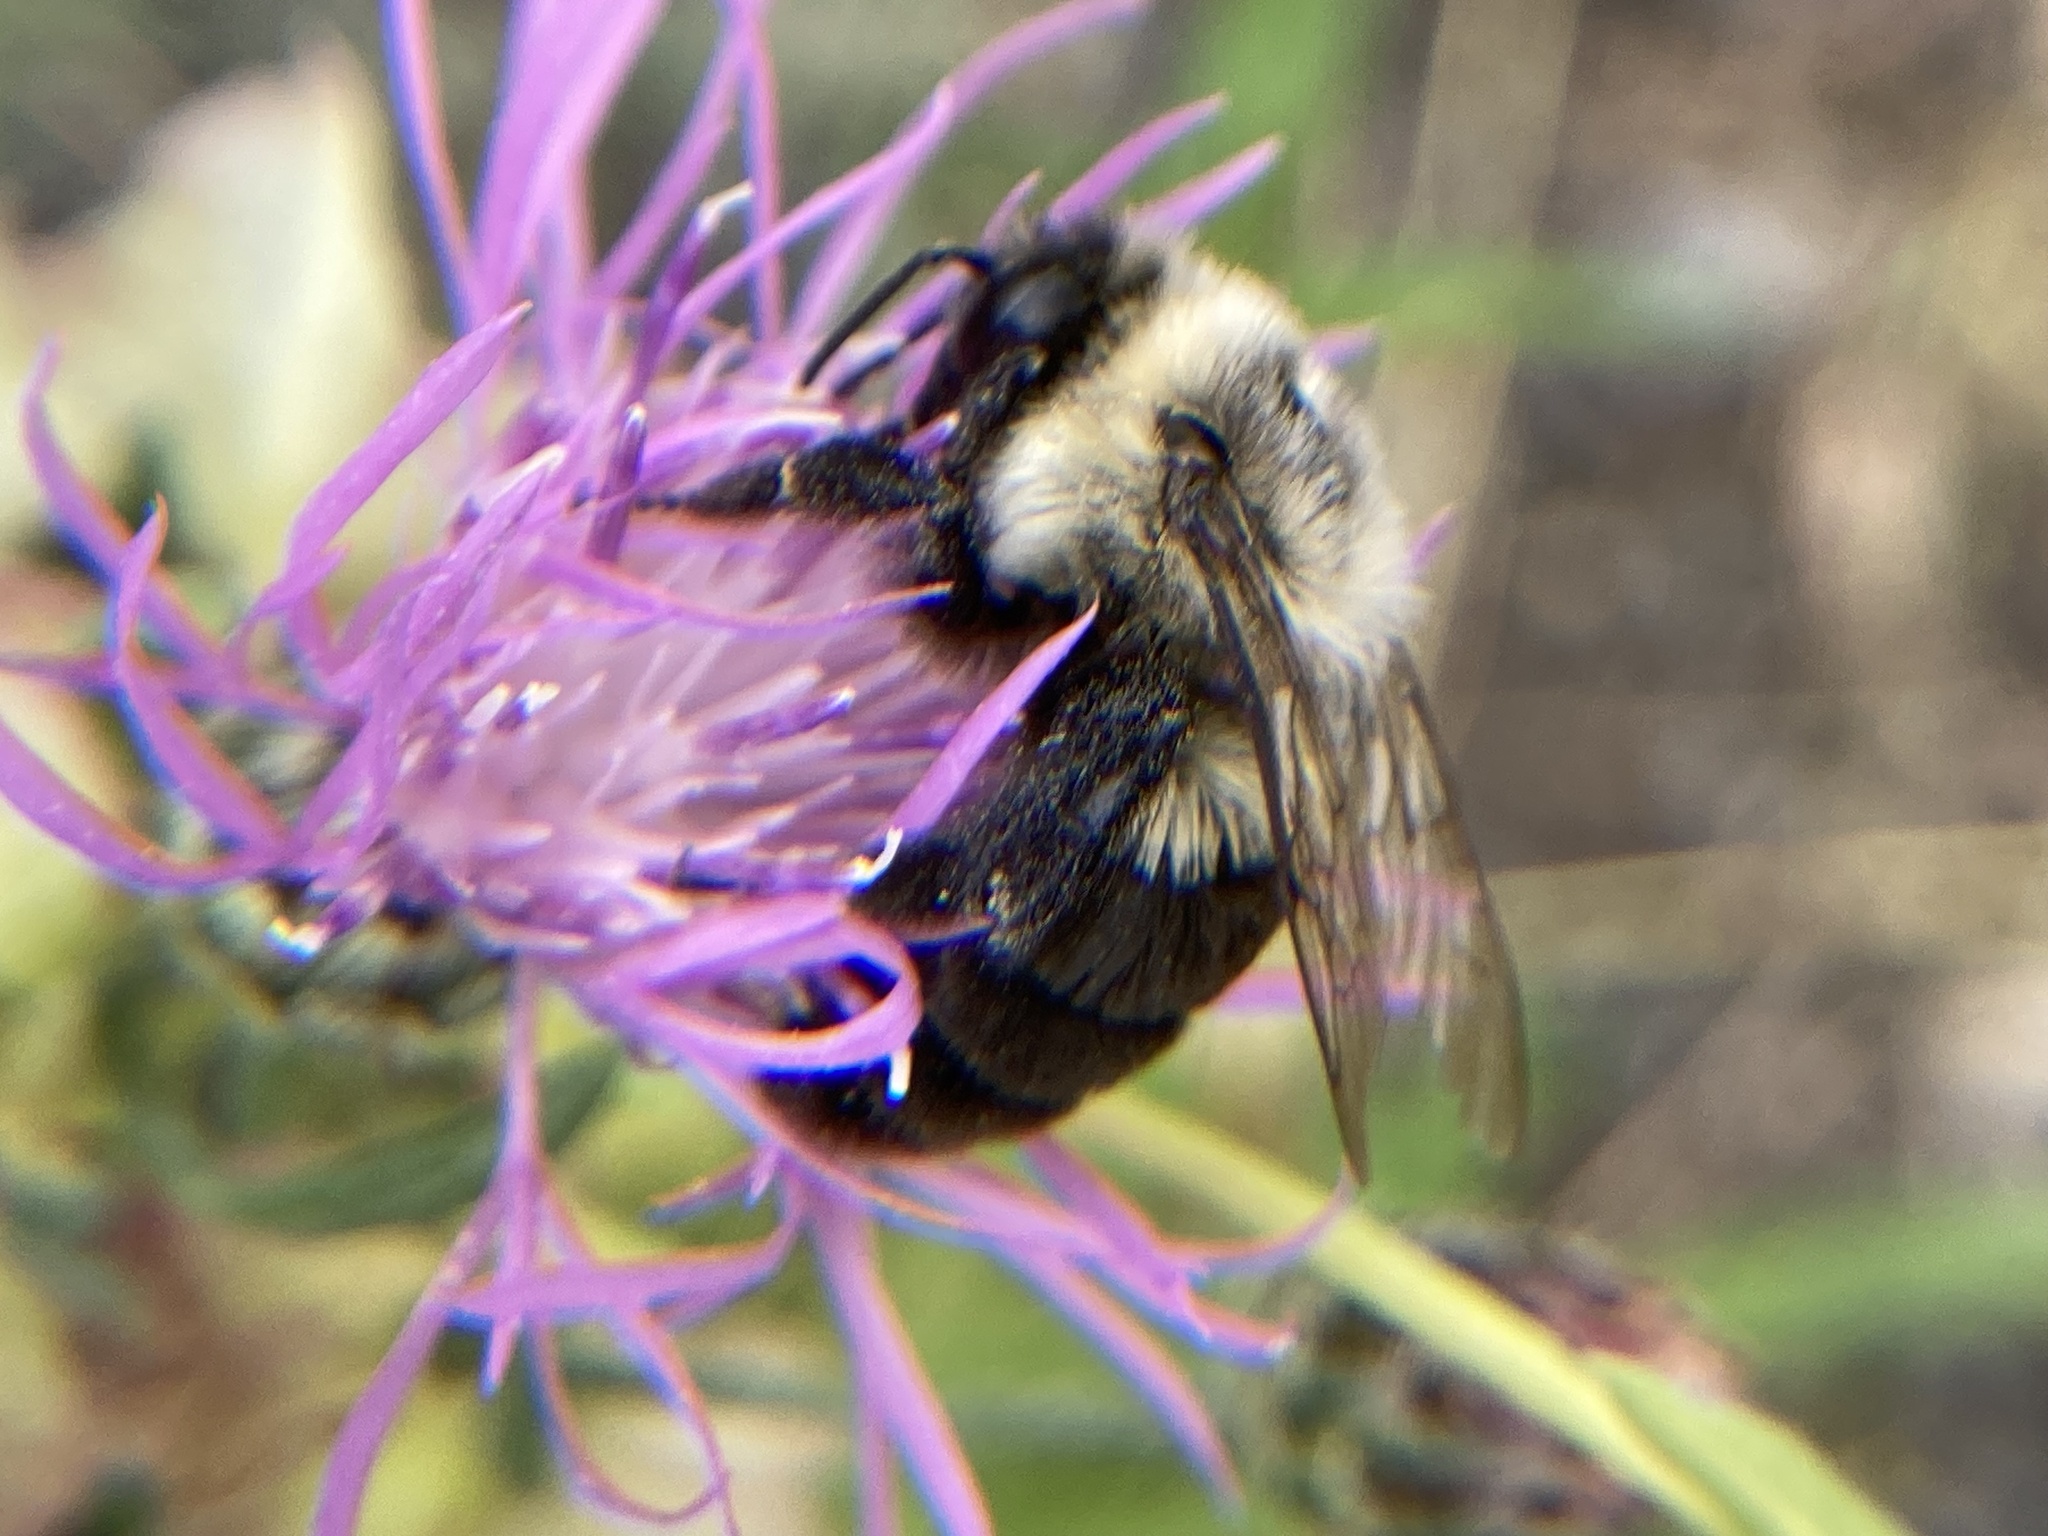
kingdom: Animalia
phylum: Arthropoda
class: Insecta
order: Hymenoptera
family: Apidae
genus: Bombus
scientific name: Bombus impatiens
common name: Common eastern bumble bee
